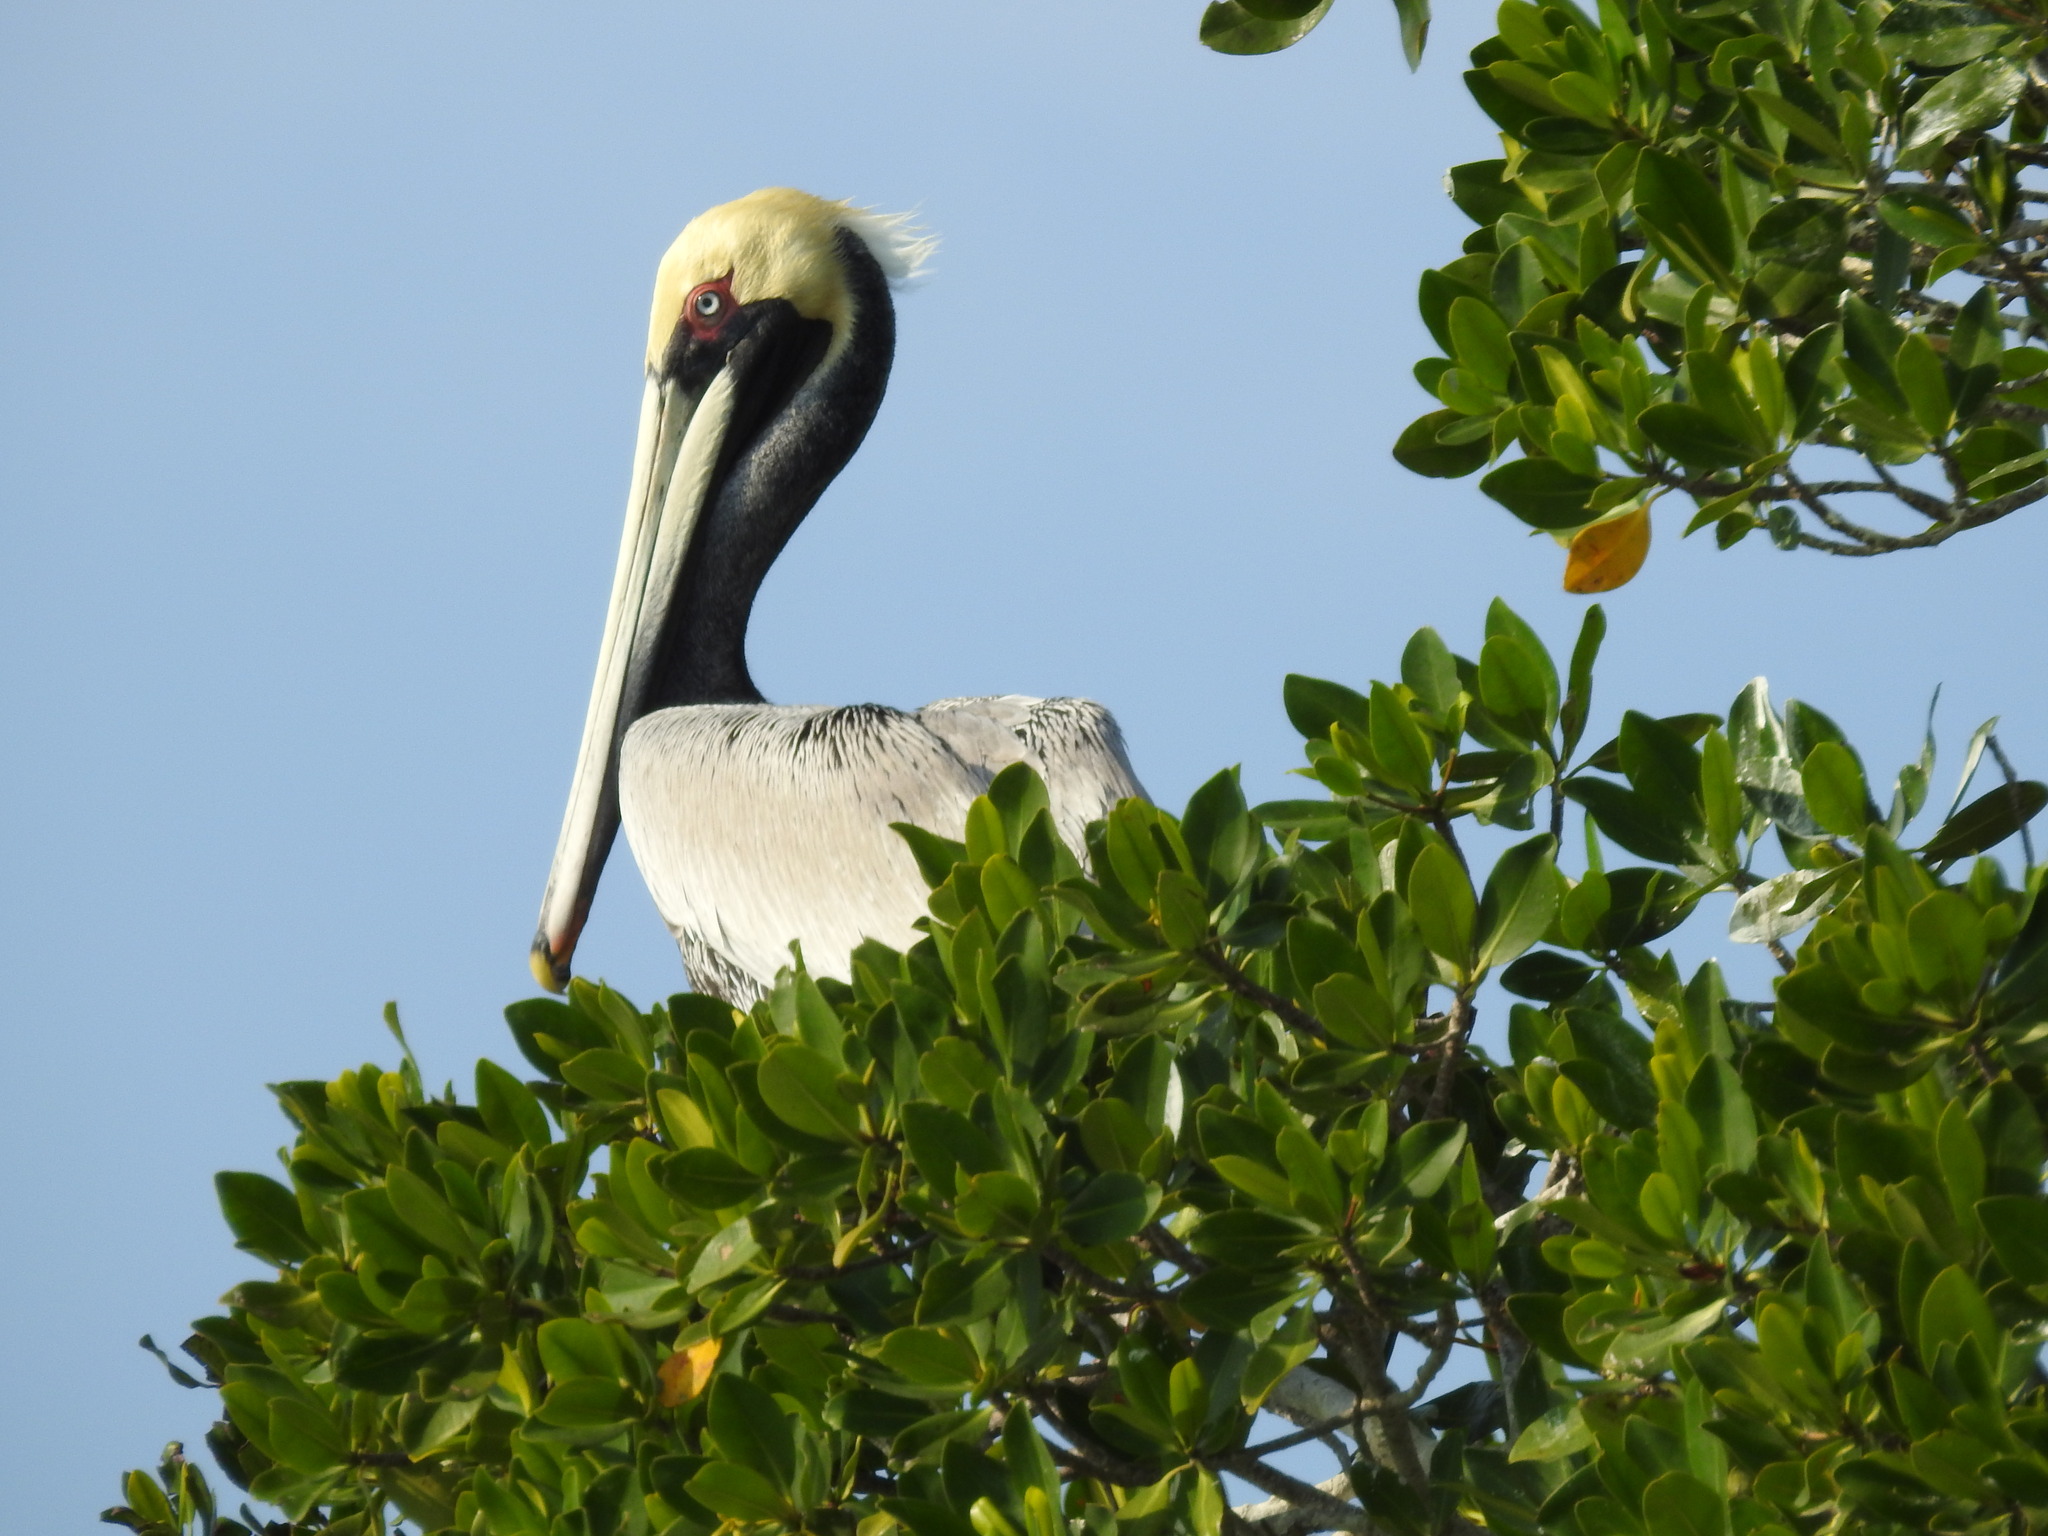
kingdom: Animalia
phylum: Chordata
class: Aves
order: Pelecaniformes
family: Pelecanidae
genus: Pelecanus
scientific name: Pelecanus occidentalis
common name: Brown pelican
